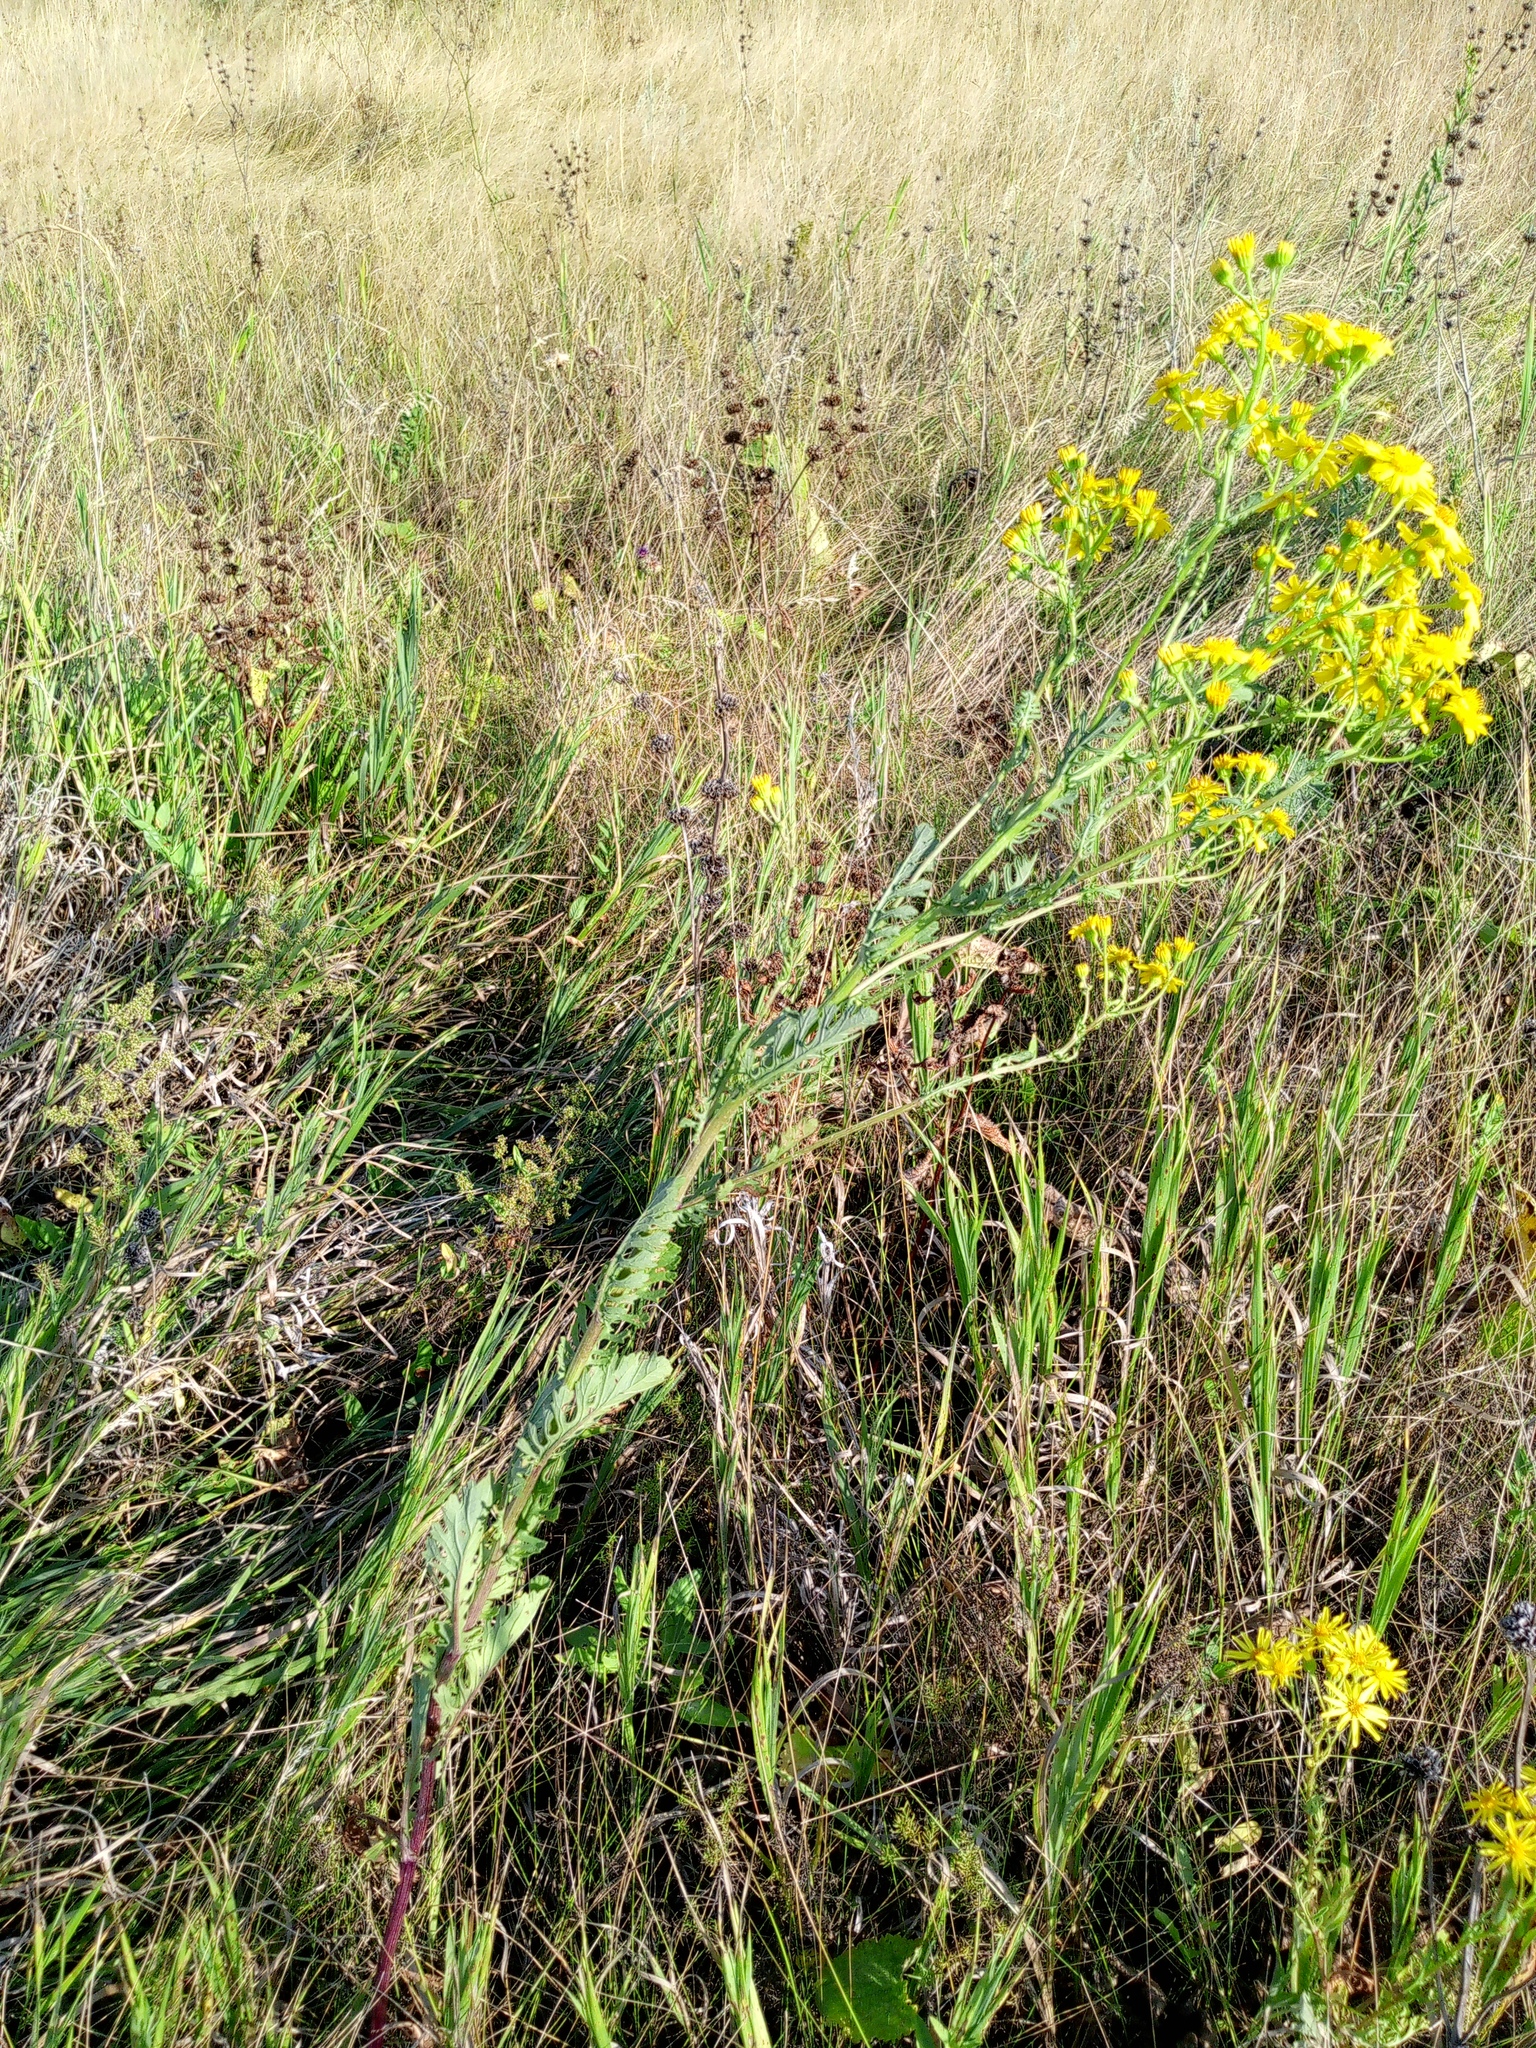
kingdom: Plantae
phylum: Tracheophyta
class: Magnoliopsida
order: Asterales
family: Asteraceae
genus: Jacobaea
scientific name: Jacobaea vulgaris
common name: Stinking willie
